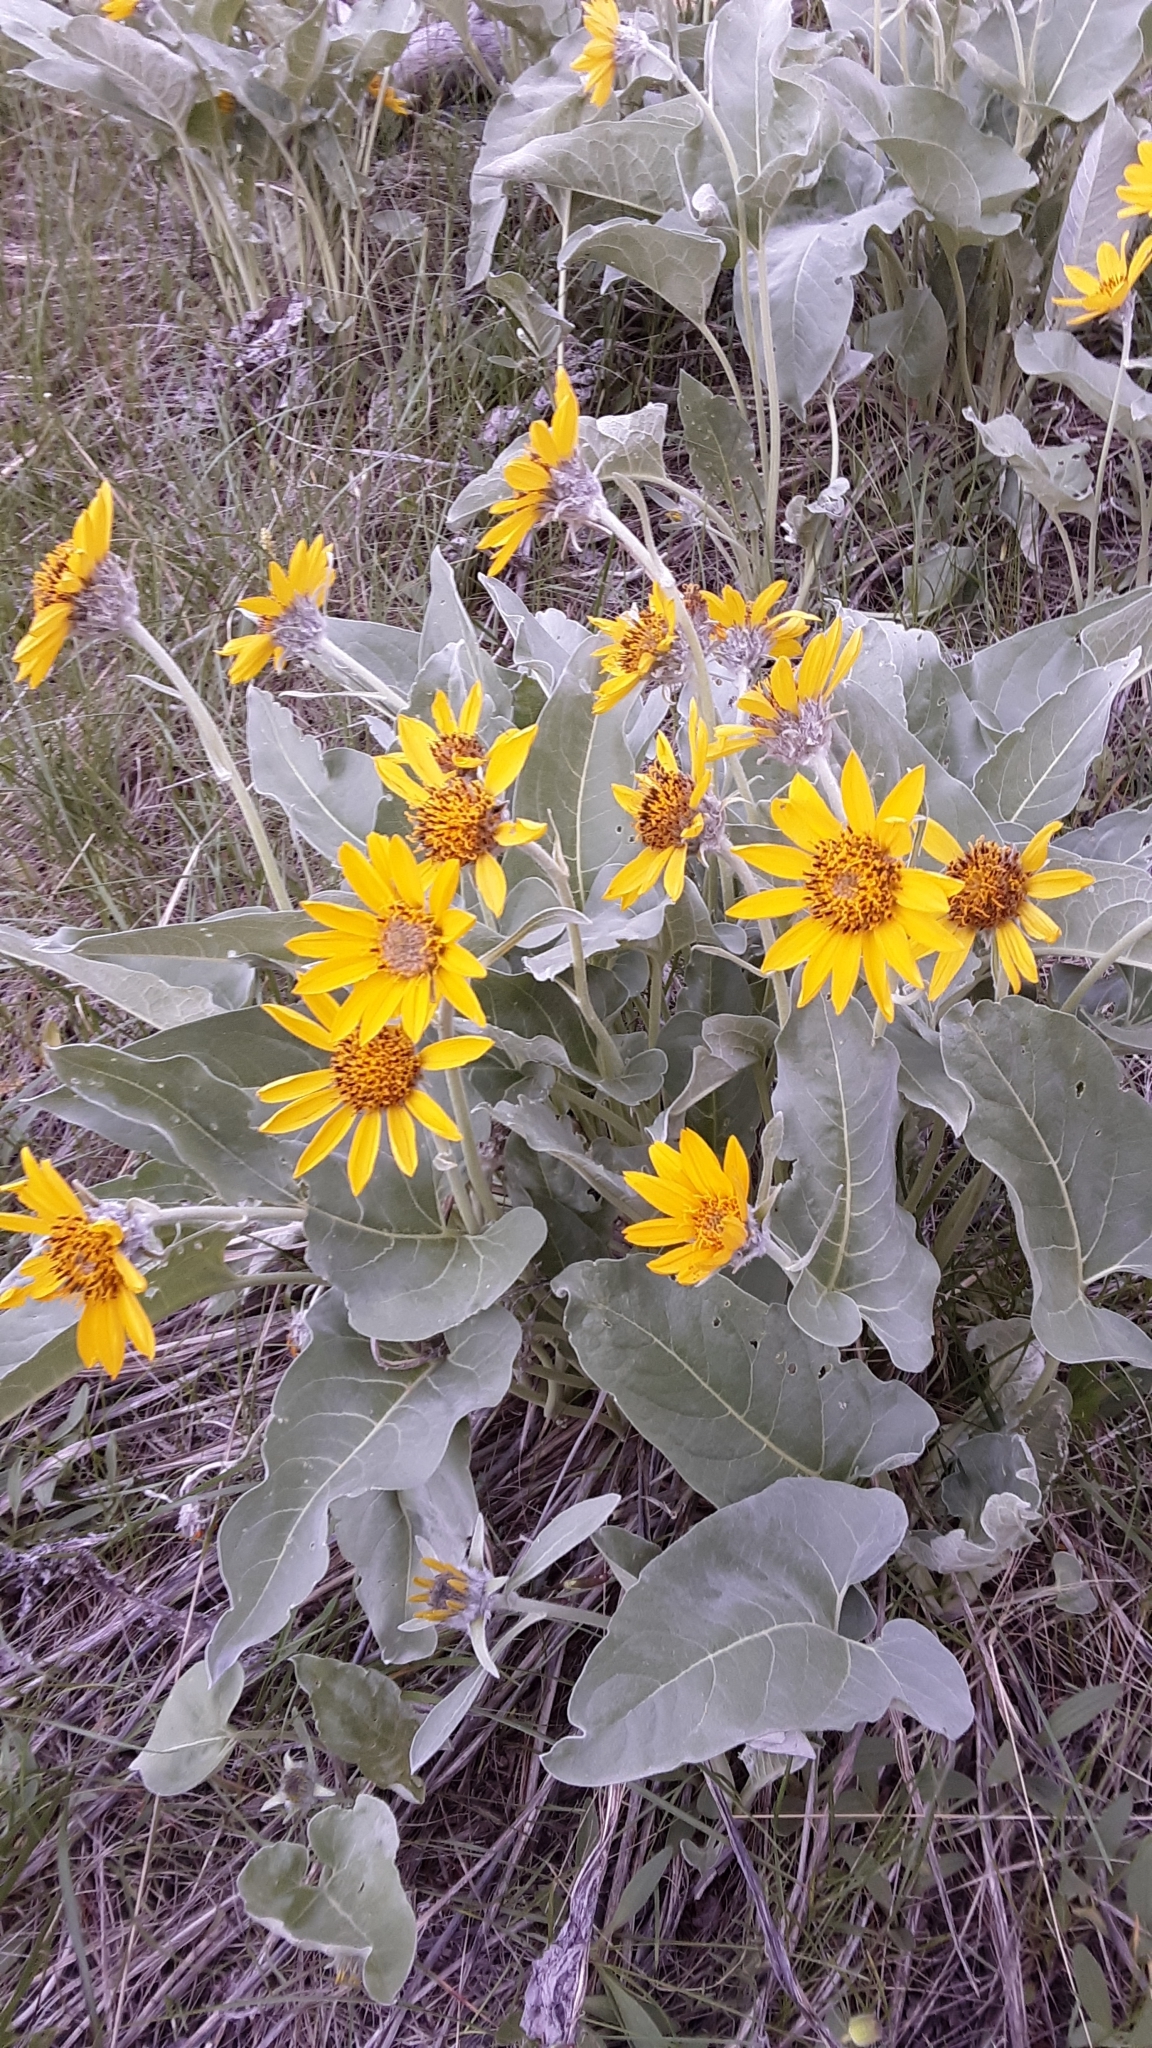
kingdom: Plantae
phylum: Tracheophyta
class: Magnoliopsida
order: Asterales
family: Asteraceae
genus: Wyethia
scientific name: Wyethia sagittata
